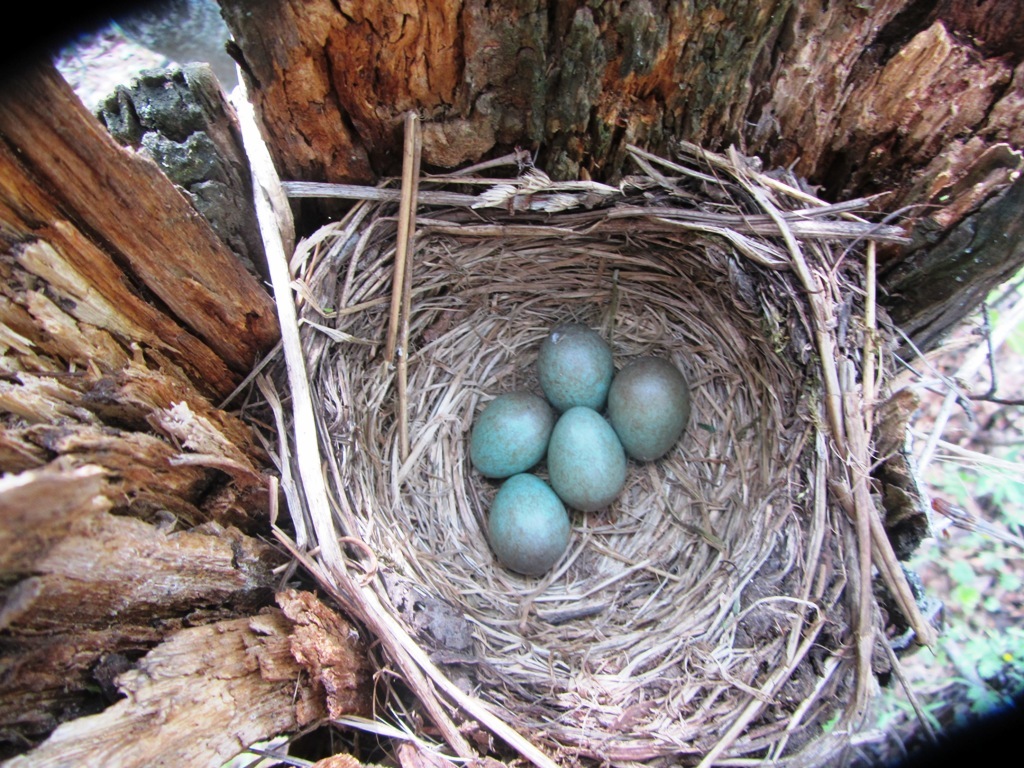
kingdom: Animalia
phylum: Chordata
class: Aves
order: Passeriformes
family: Turdidae
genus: Turdus
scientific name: Turdus pilaris
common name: Fieldfare
